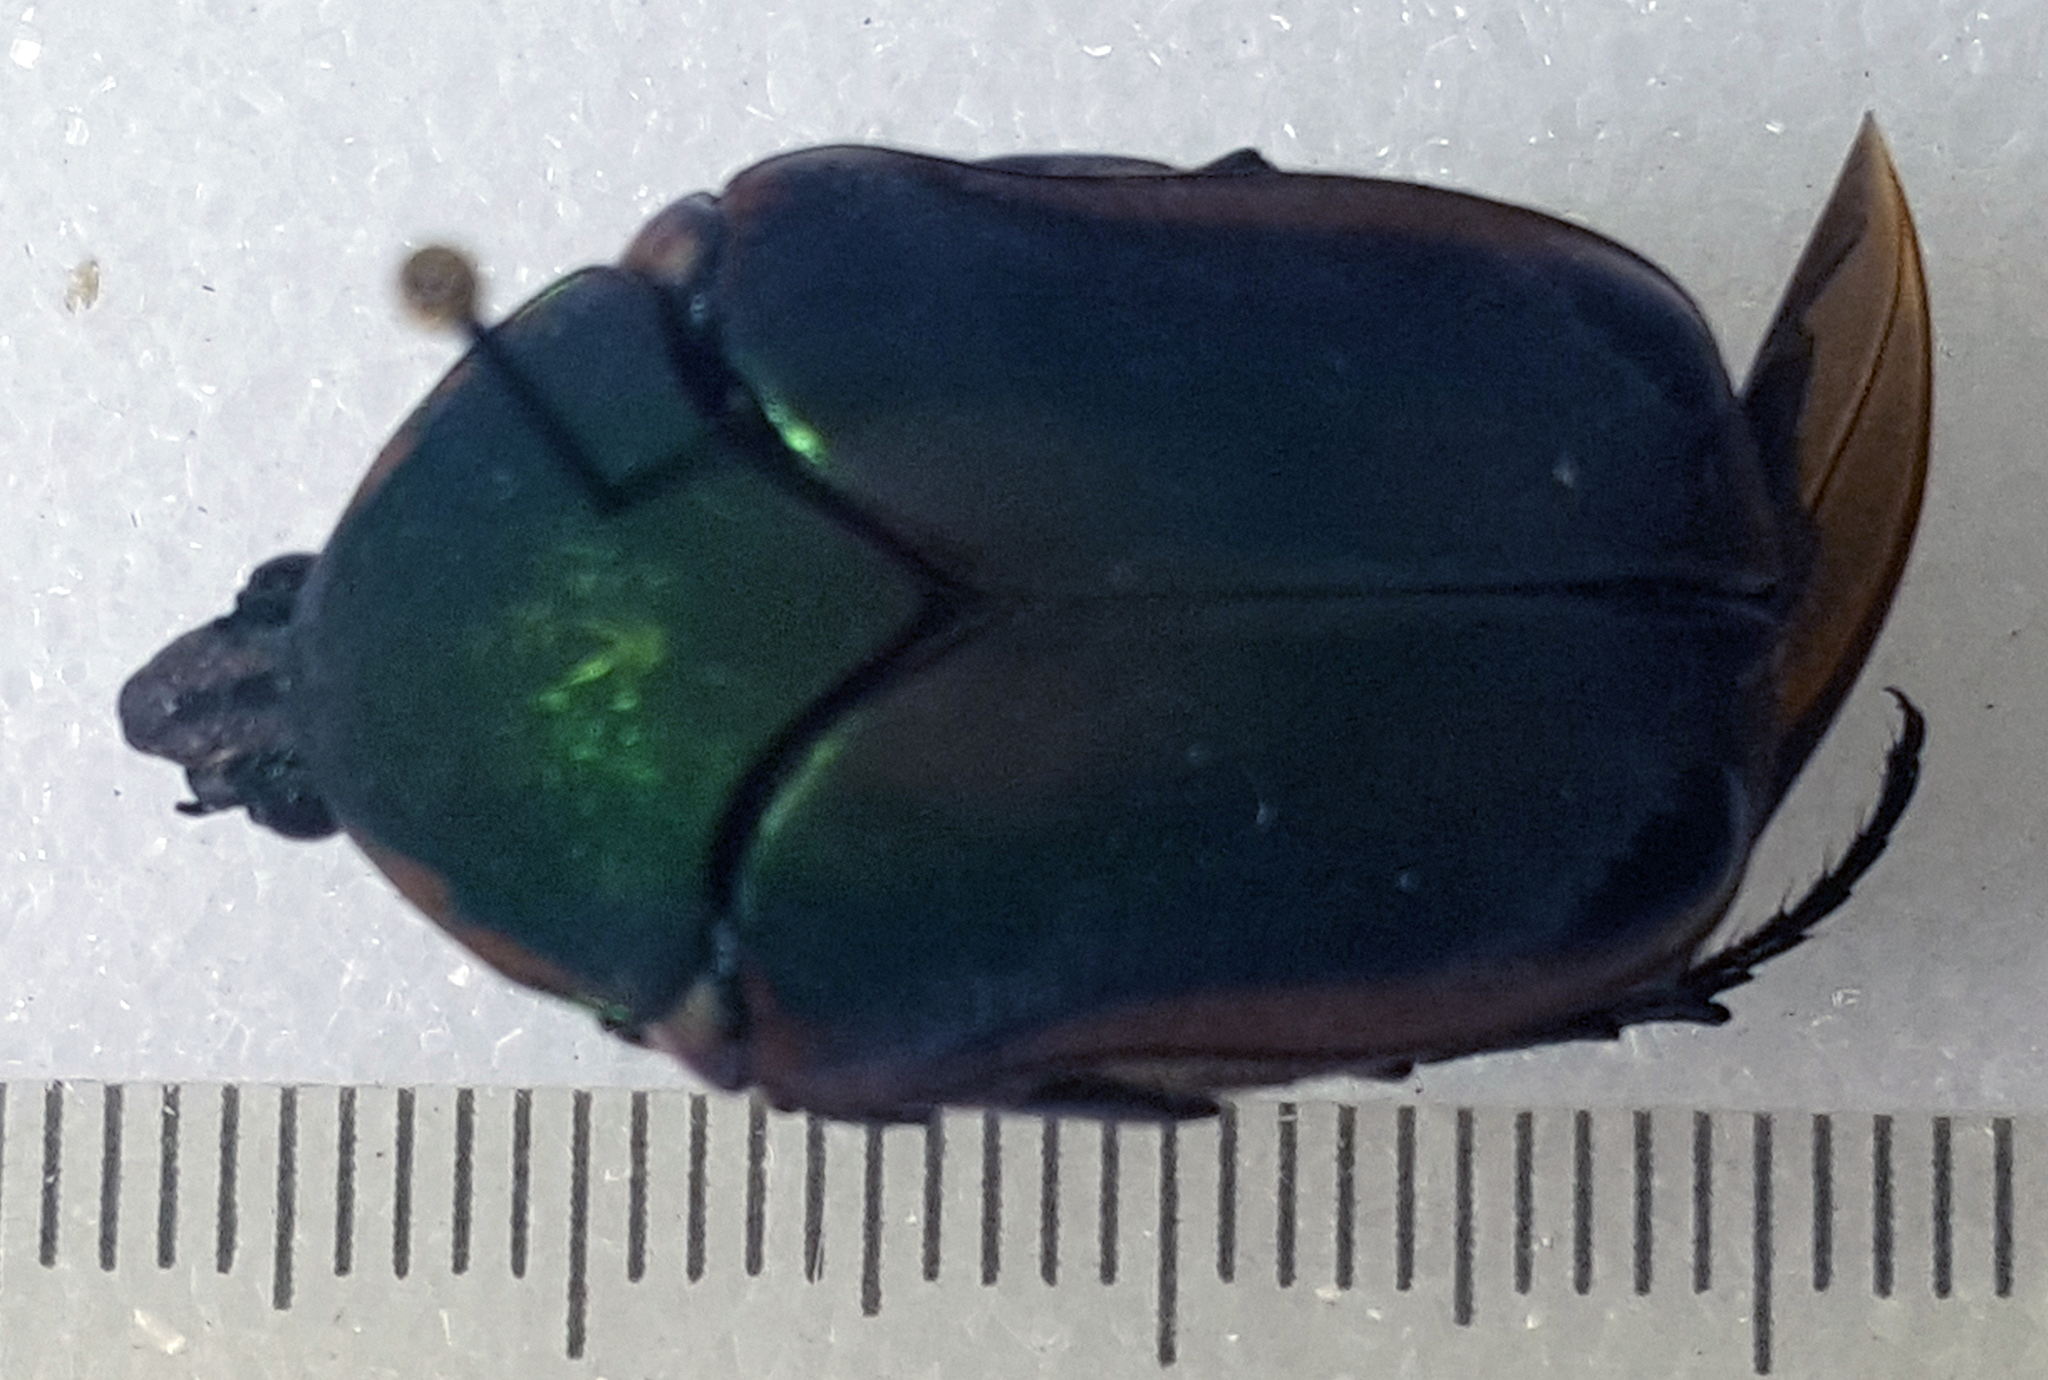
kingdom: Animalia
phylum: Arthropoda
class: Insecta
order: Coleoptera
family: Scarabaeidae
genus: Cotinis
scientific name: Cotinis nitida
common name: Common green june beetle
